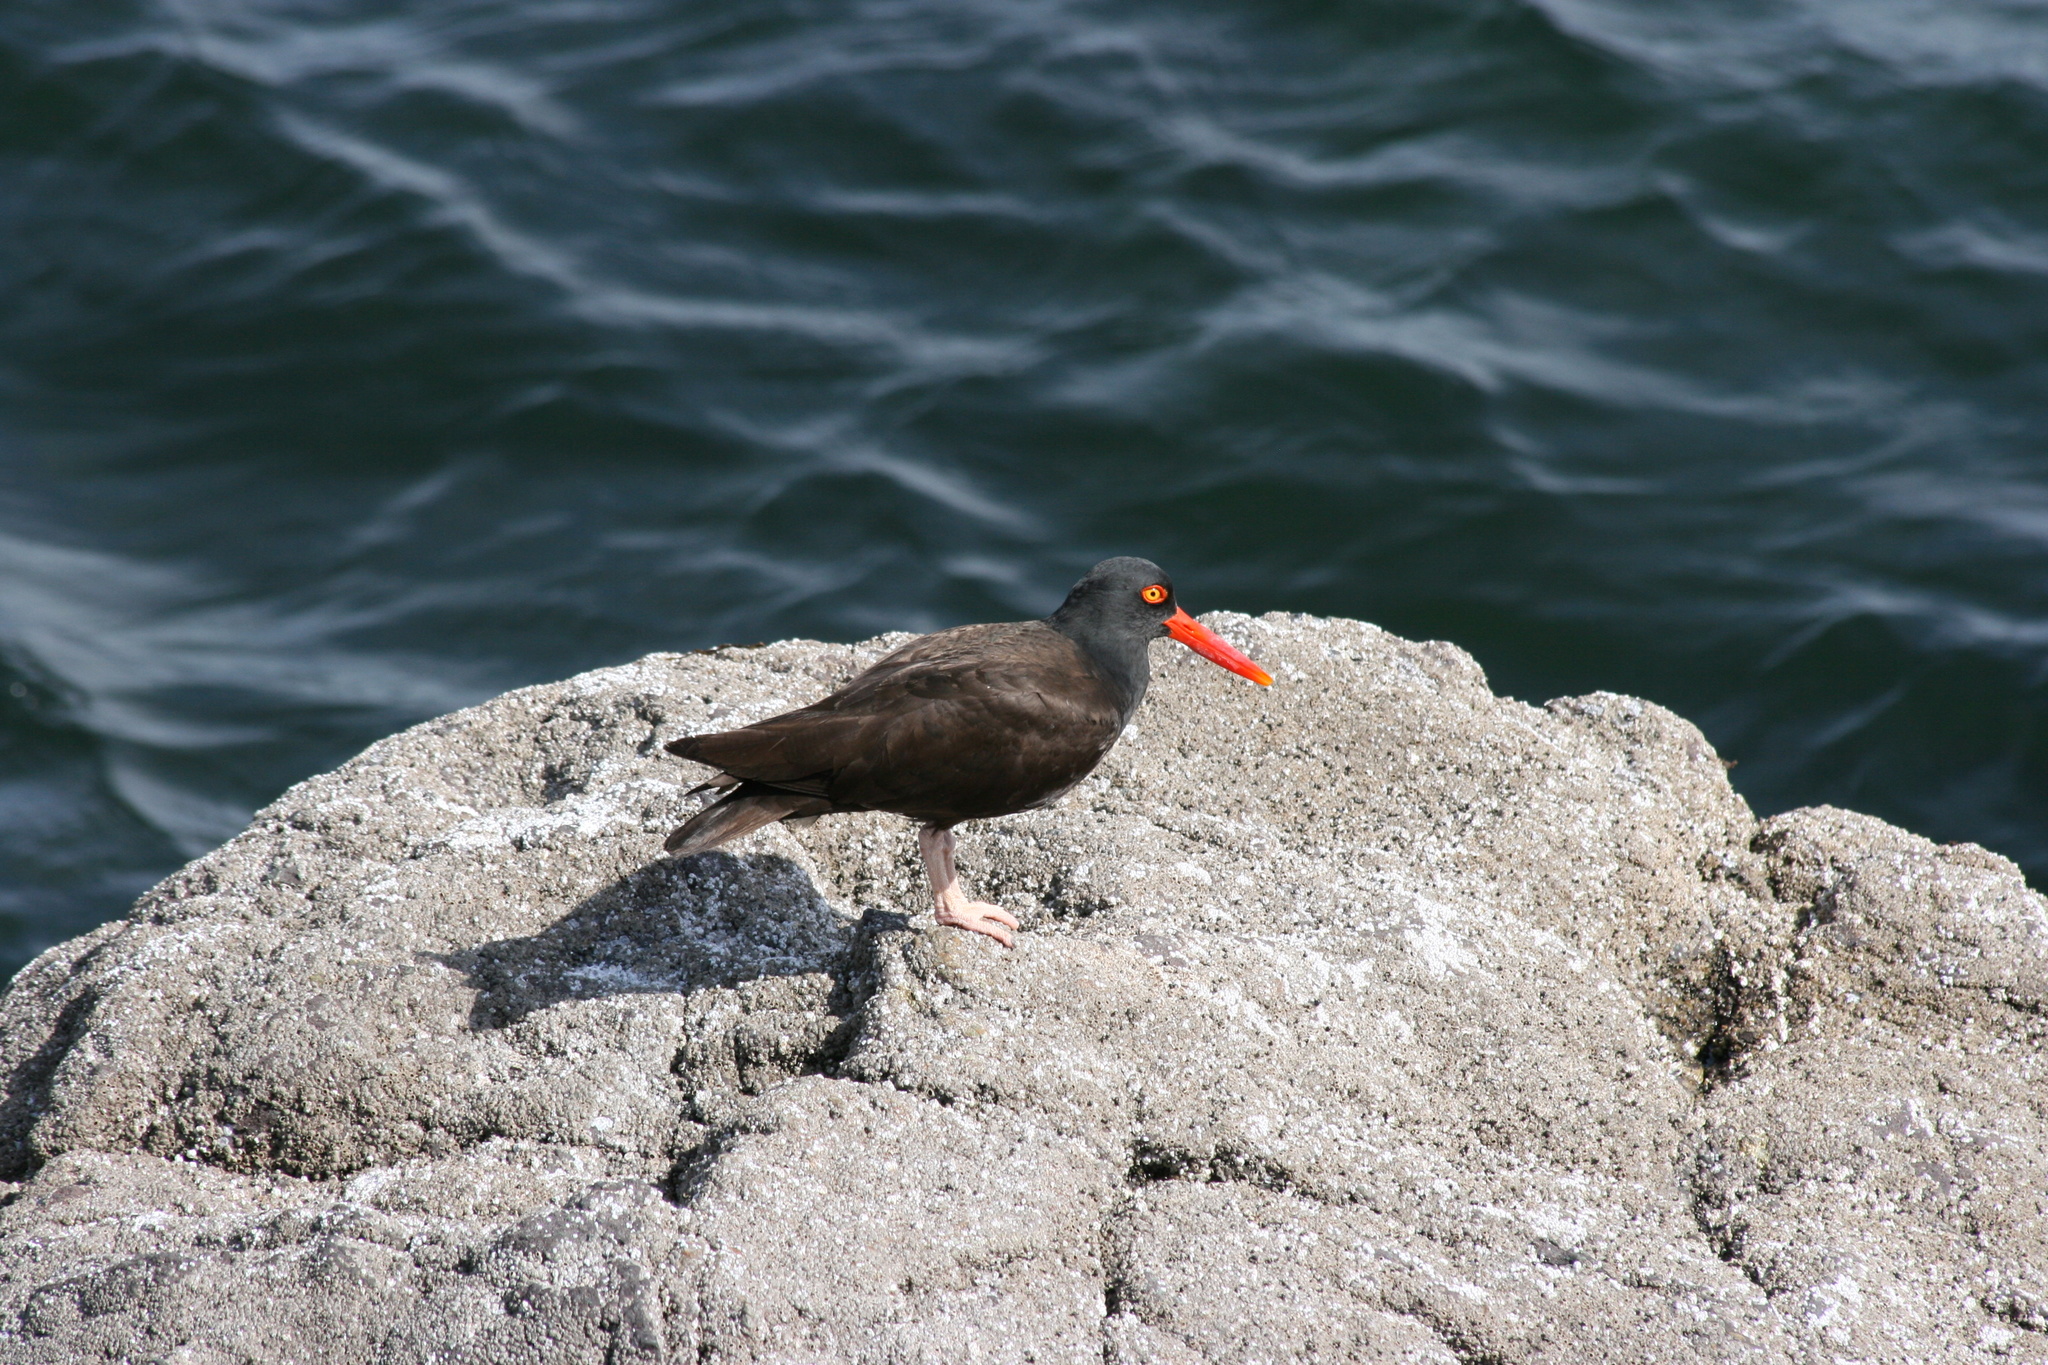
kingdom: Animalia
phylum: Chordata
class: Aves
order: Charadriiformes
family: Haematopodidae
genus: Haematopus
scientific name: Haematopus bachmani
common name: Black oystercatcher
